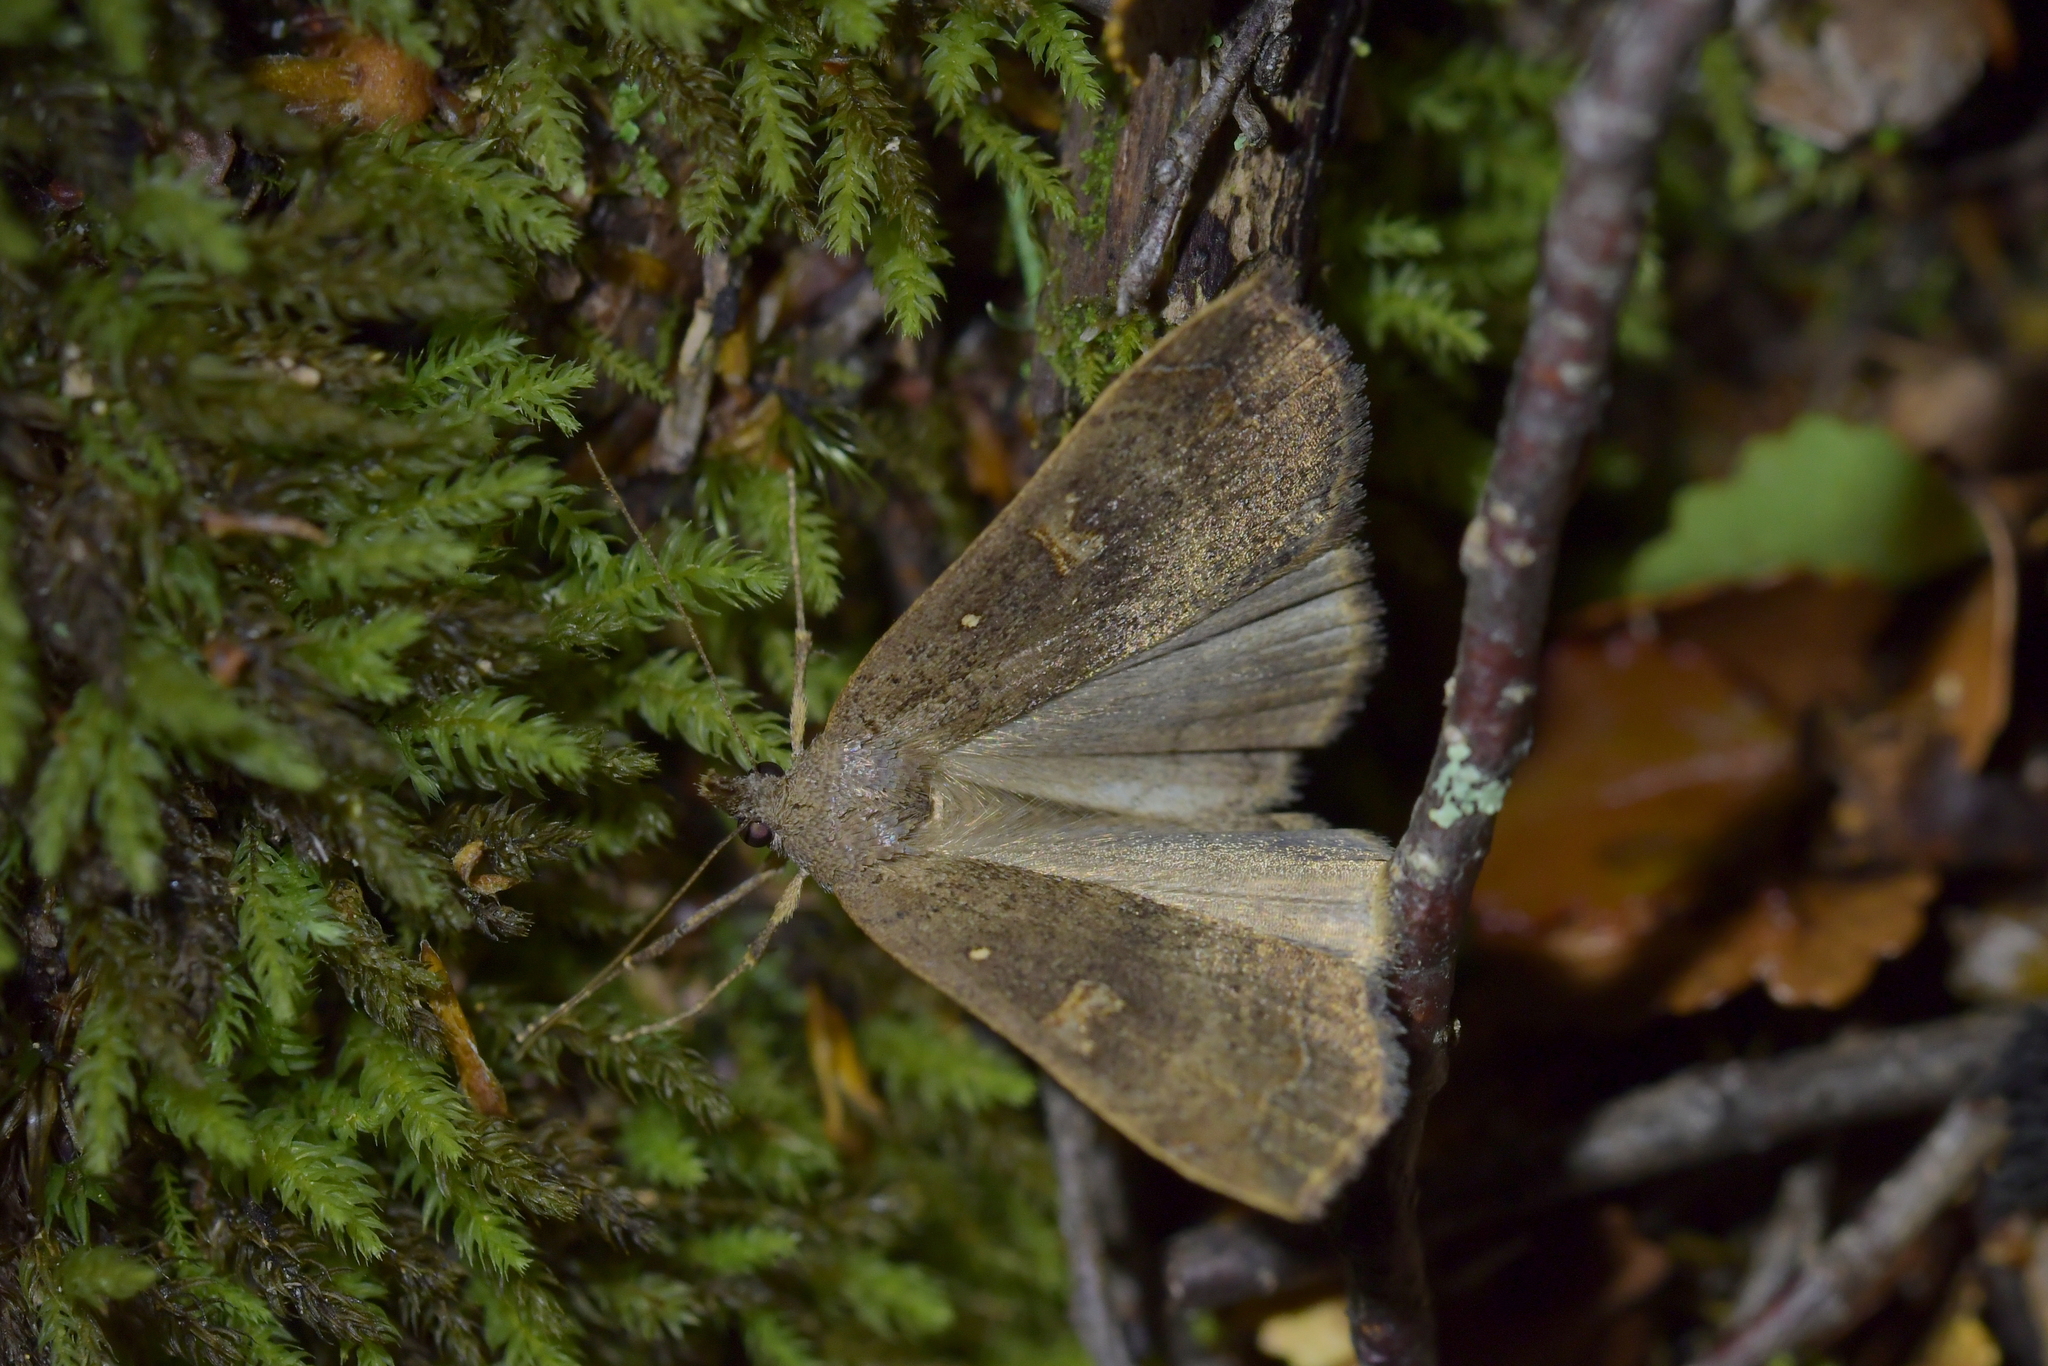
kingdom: Animalia
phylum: Arthropoda
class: Insecta
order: Lepidoptera
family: Erebidae
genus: Rhapsa
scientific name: Rhapsa scotosialis
